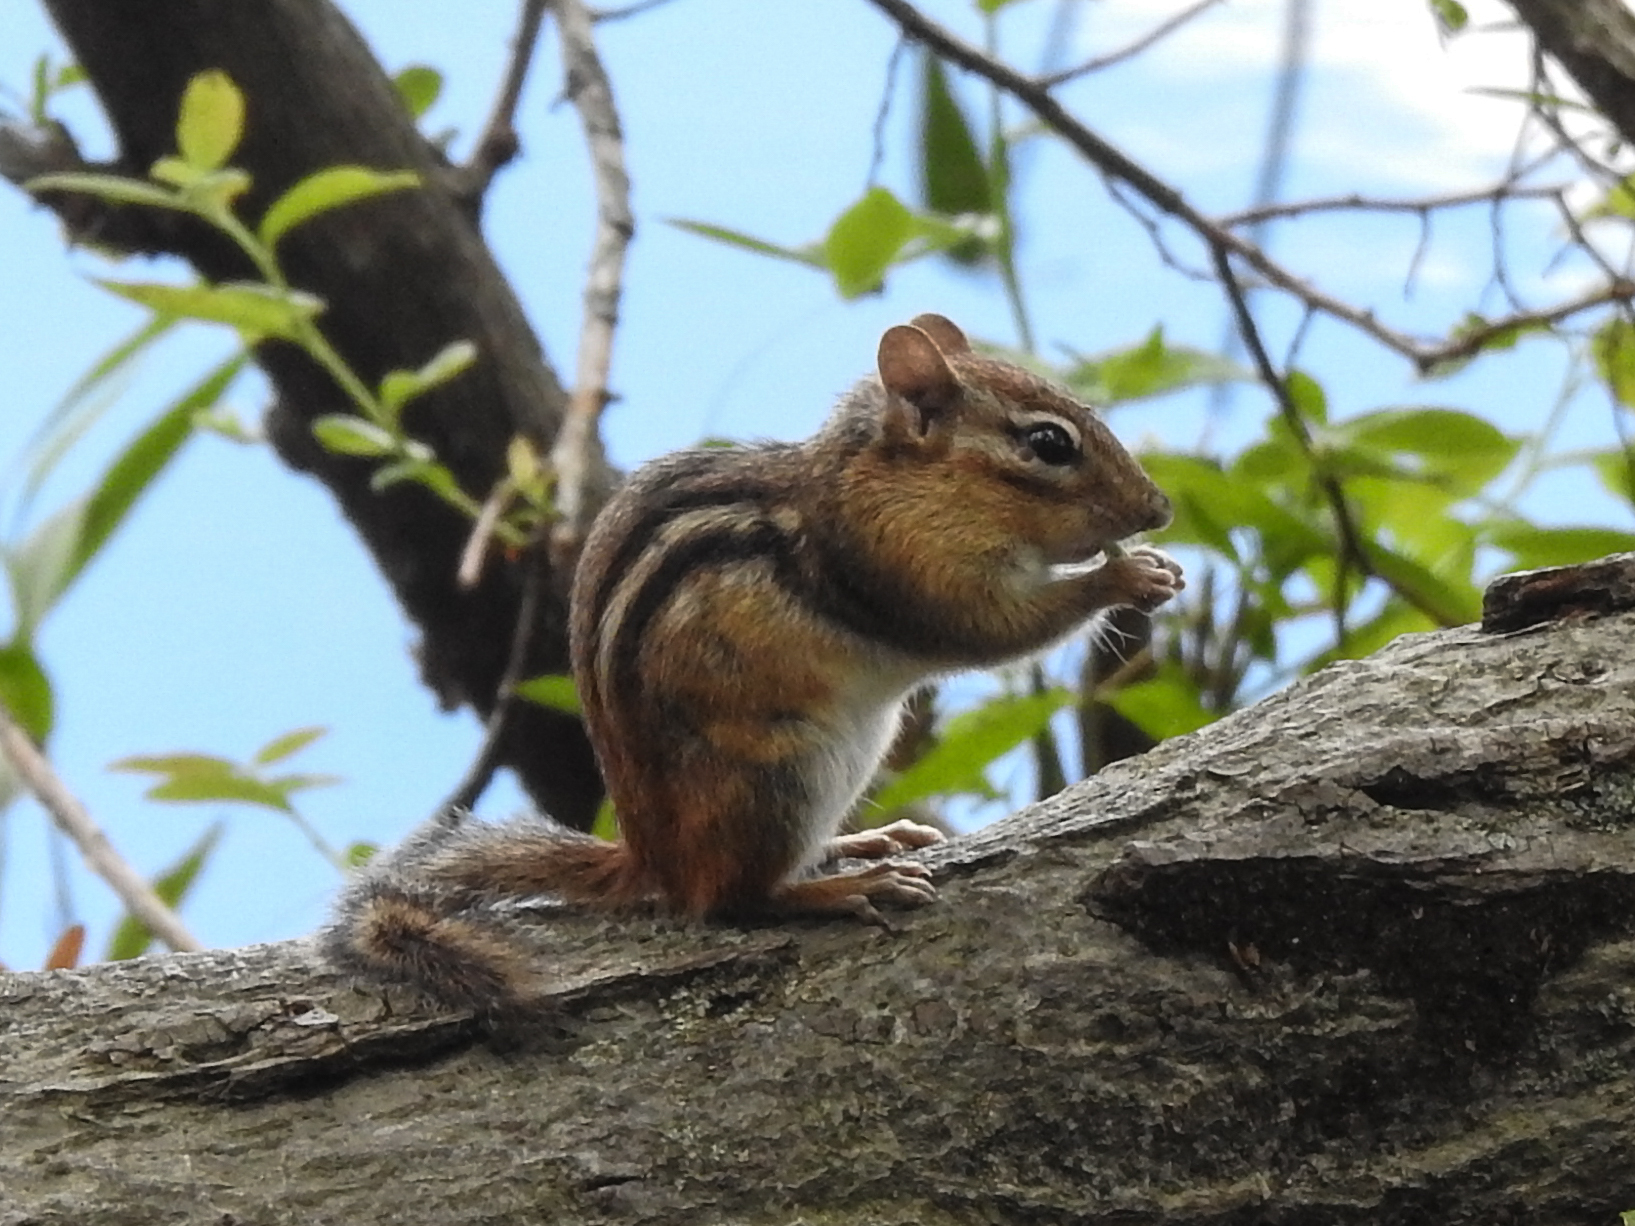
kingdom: Animalia
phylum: Chordata
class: Mammalia
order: Rodentia
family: Sciuridae
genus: Tamias
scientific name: Tamias striatus
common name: Eastern chipmunk
